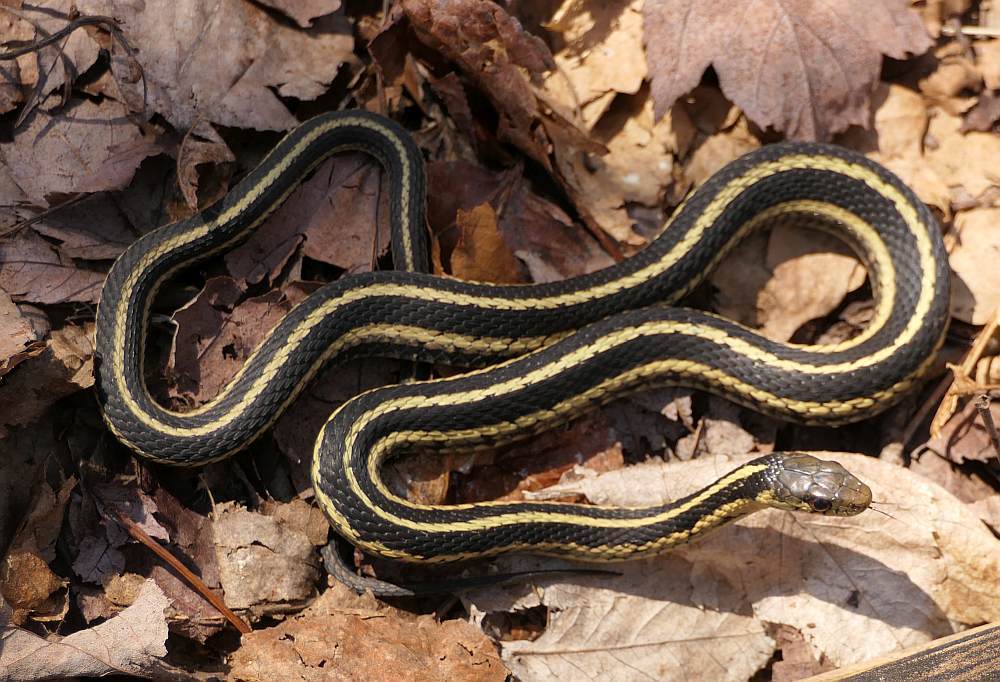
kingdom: Animalia
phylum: Chordata
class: Squamata
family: Colubridae
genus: Thamnophis
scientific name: Thamnophis sirtalis
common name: Common garter snake
